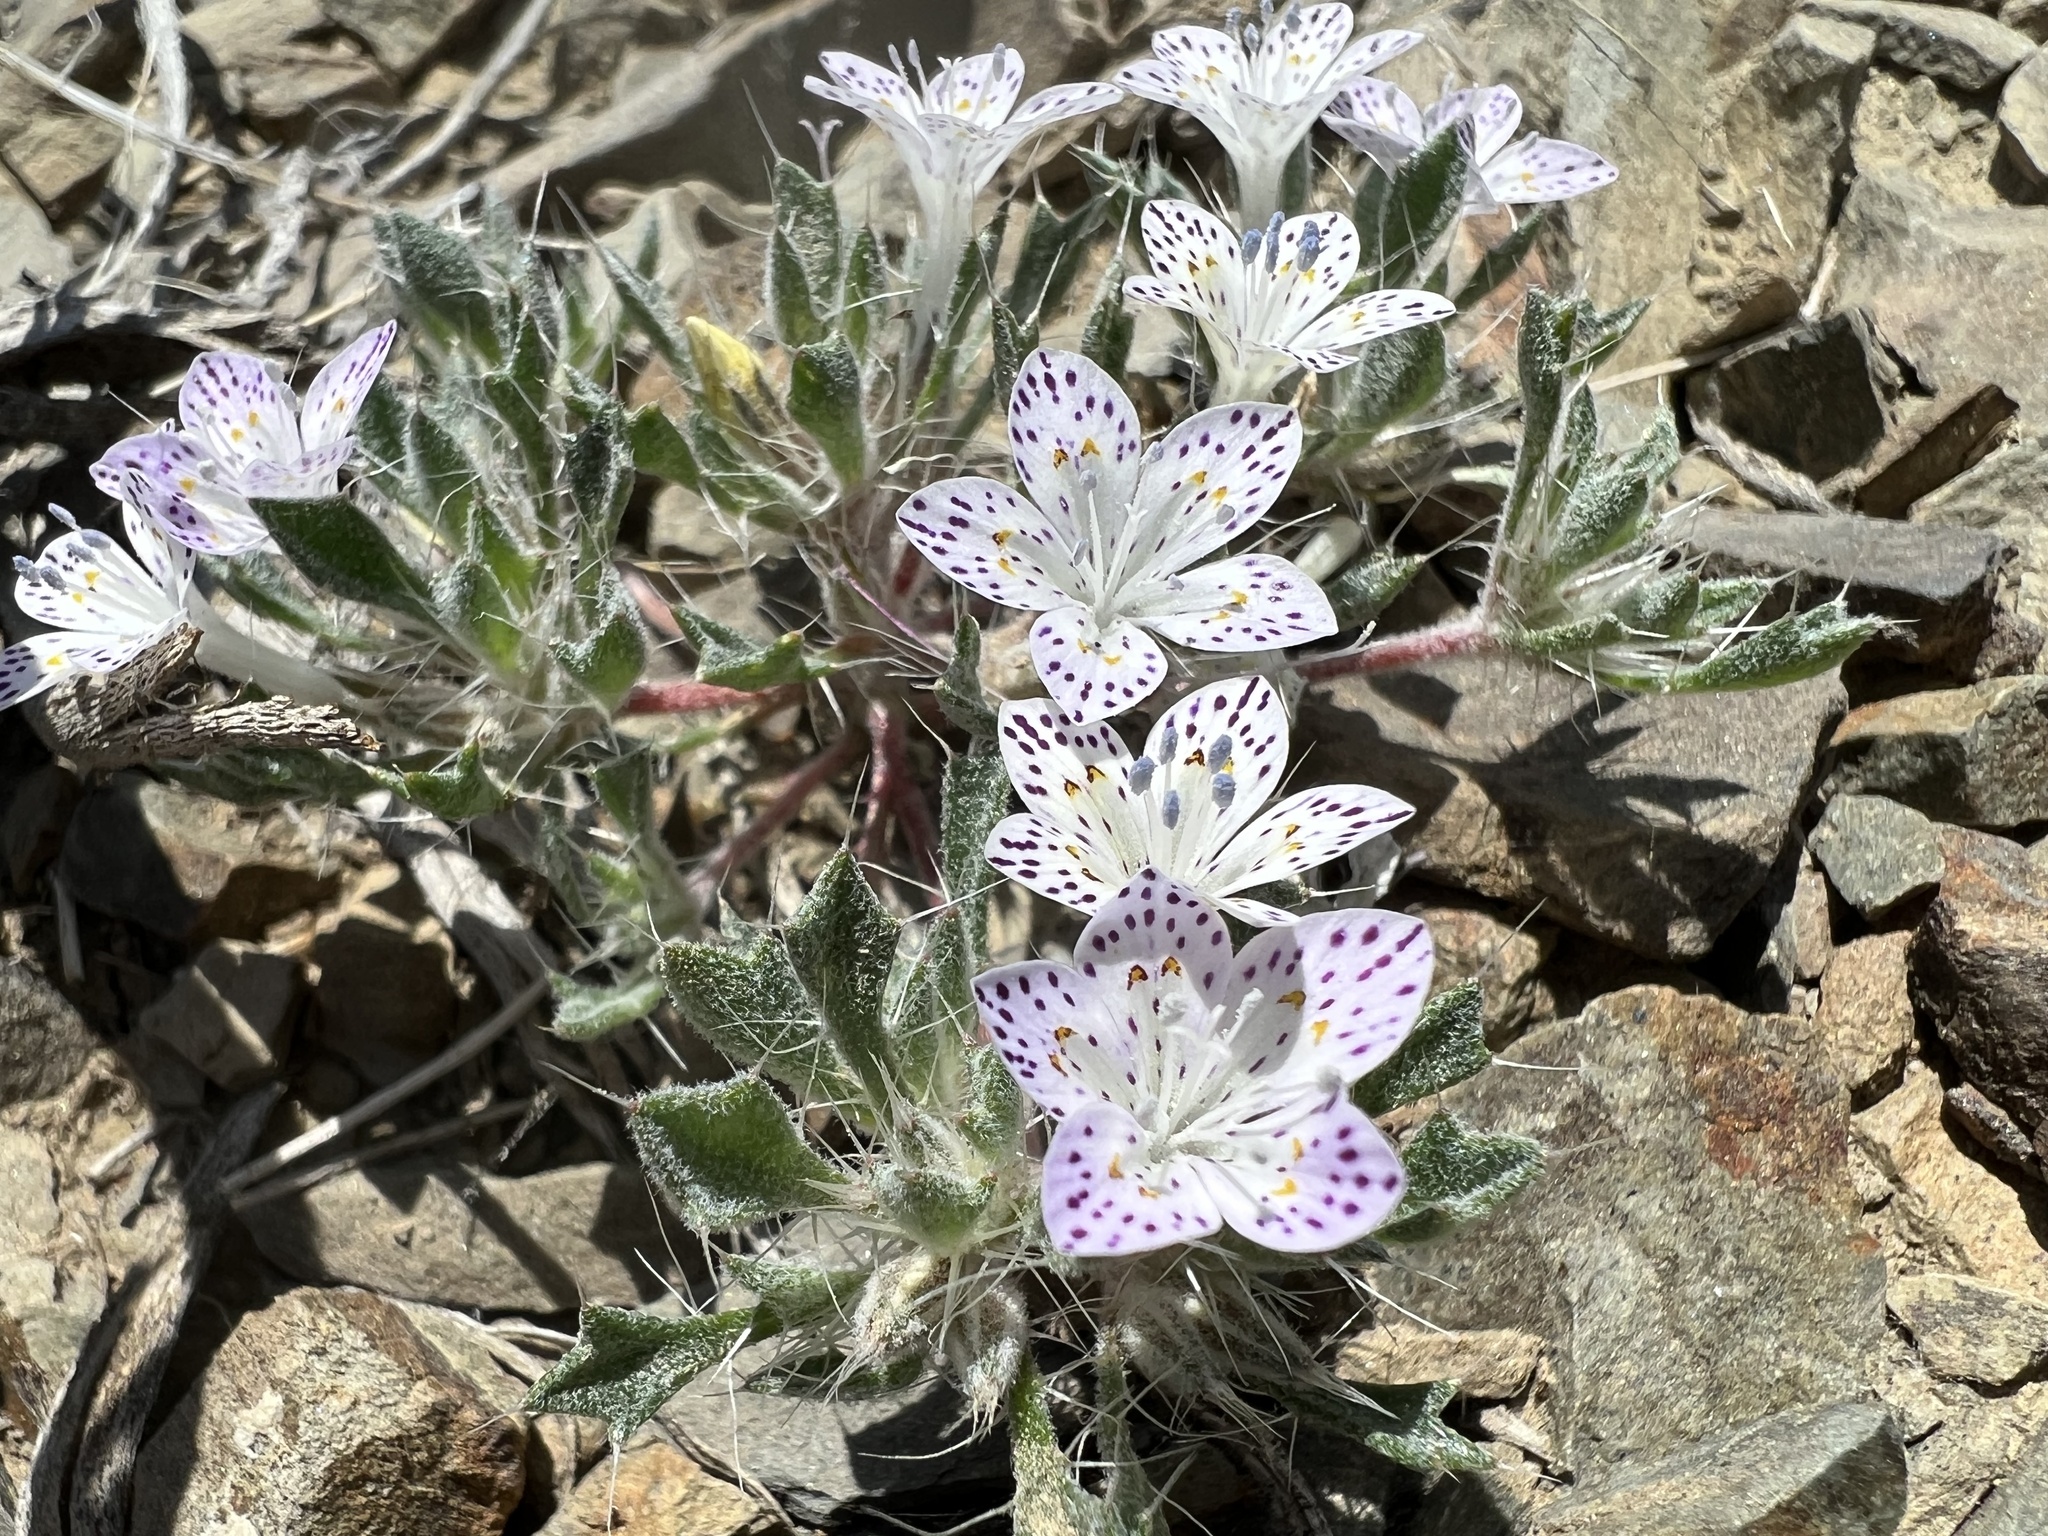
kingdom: Plantae
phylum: Tracheophyta
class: Magnoliopsida
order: Ericales
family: Polemoniaceae
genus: Langloisia
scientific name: Langloisia setosissima
